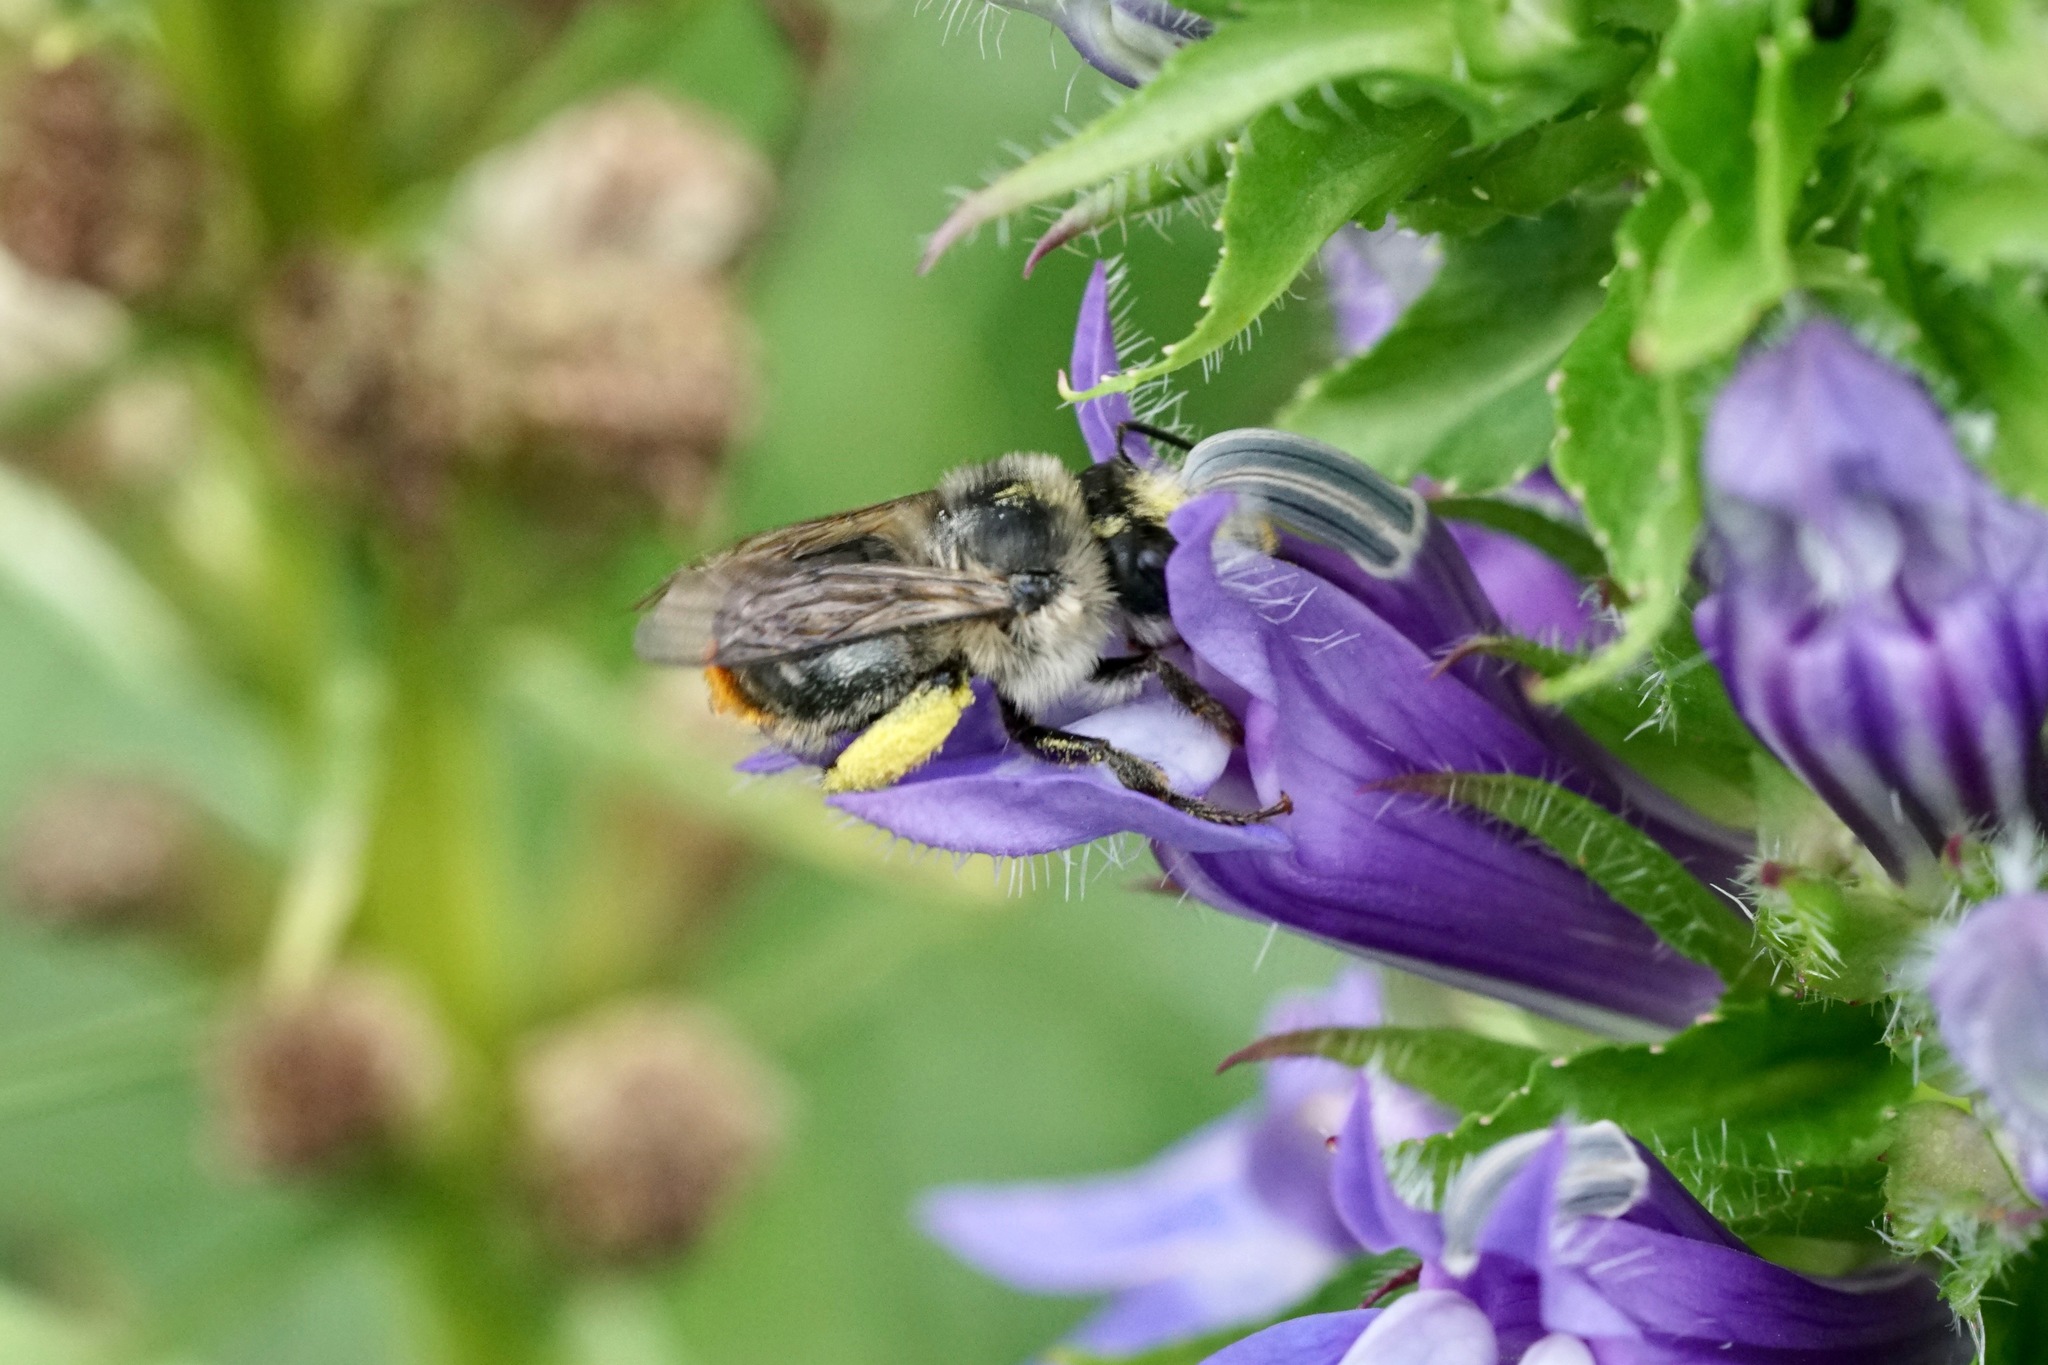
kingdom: Animalia
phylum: Arthropoda
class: Insecta
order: Hymenoptera
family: Apidae
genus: Anthophora
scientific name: Anthophora terminalis
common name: Orange-tipped wood-digger bee
